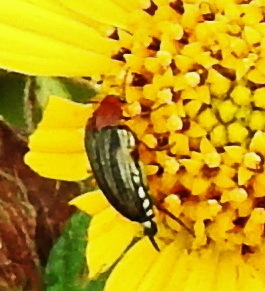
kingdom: Animalia
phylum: Arthropoda
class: Insecta
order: Coleoptera
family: Mordellidae
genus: Mordellistena
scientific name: Mordellistena comata
